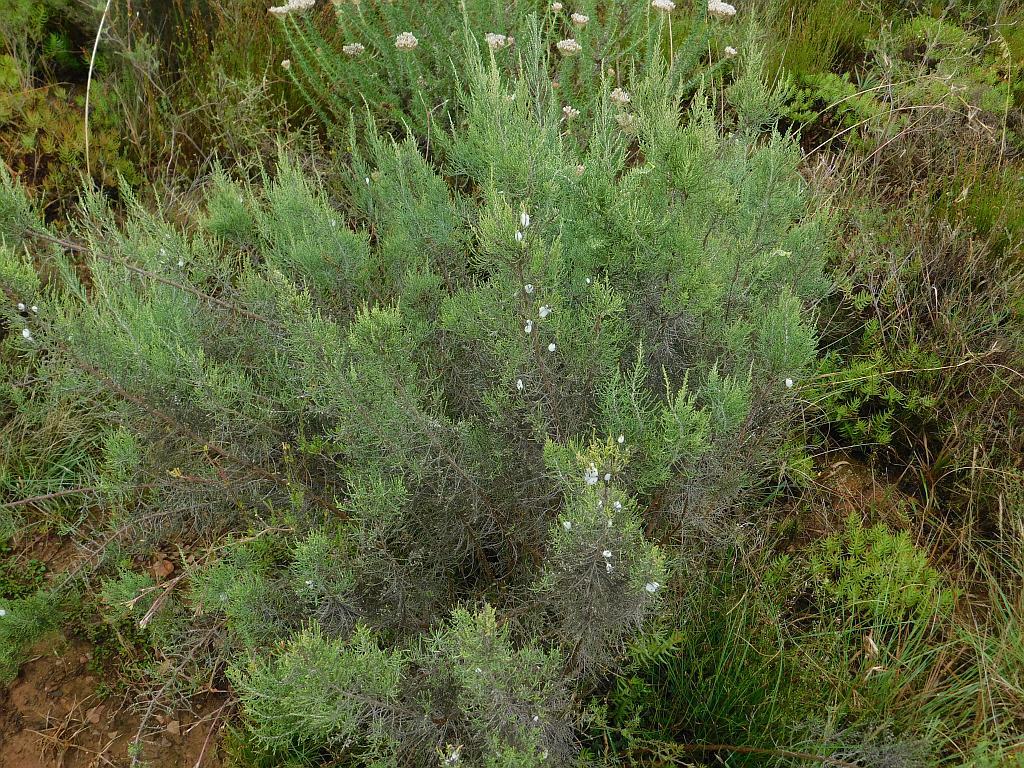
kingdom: Animalia
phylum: Arthropoda
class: Insecta
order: Hemiptera
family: Aphrophoridae
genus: Tremapterus
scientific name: Tremapterus
